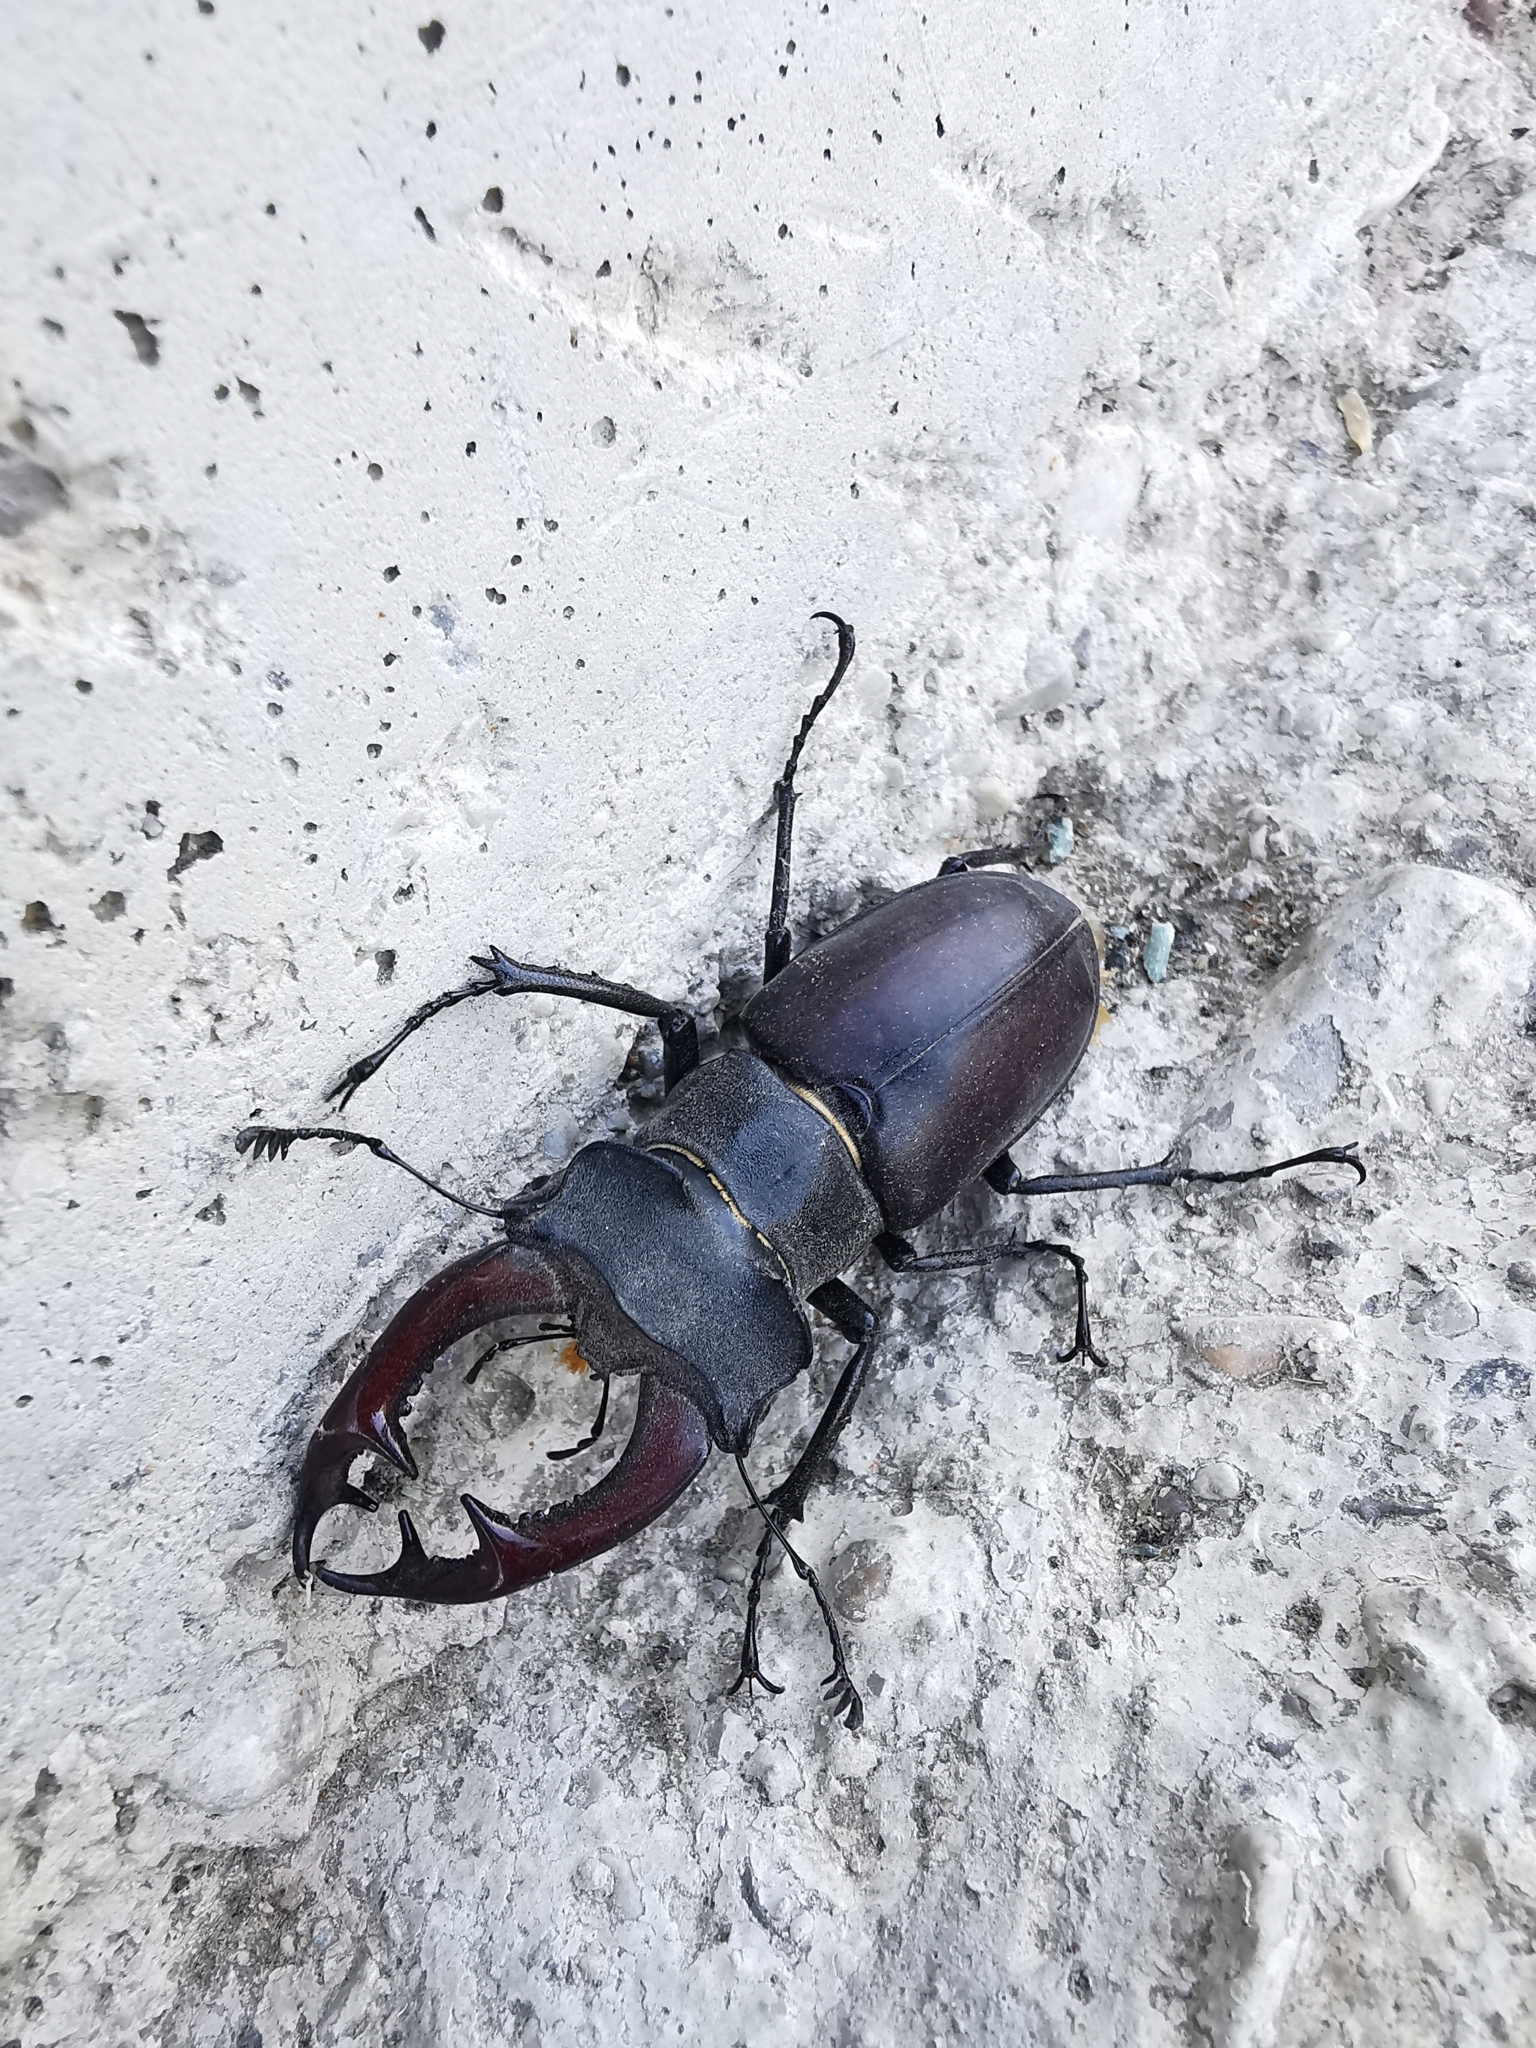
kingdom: Animalia
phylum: Arthropoda
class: Insecta
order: Coleoptera
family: Lucanidae
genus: Lucanus
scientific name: Lucanus cervus
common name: Stag beetle
